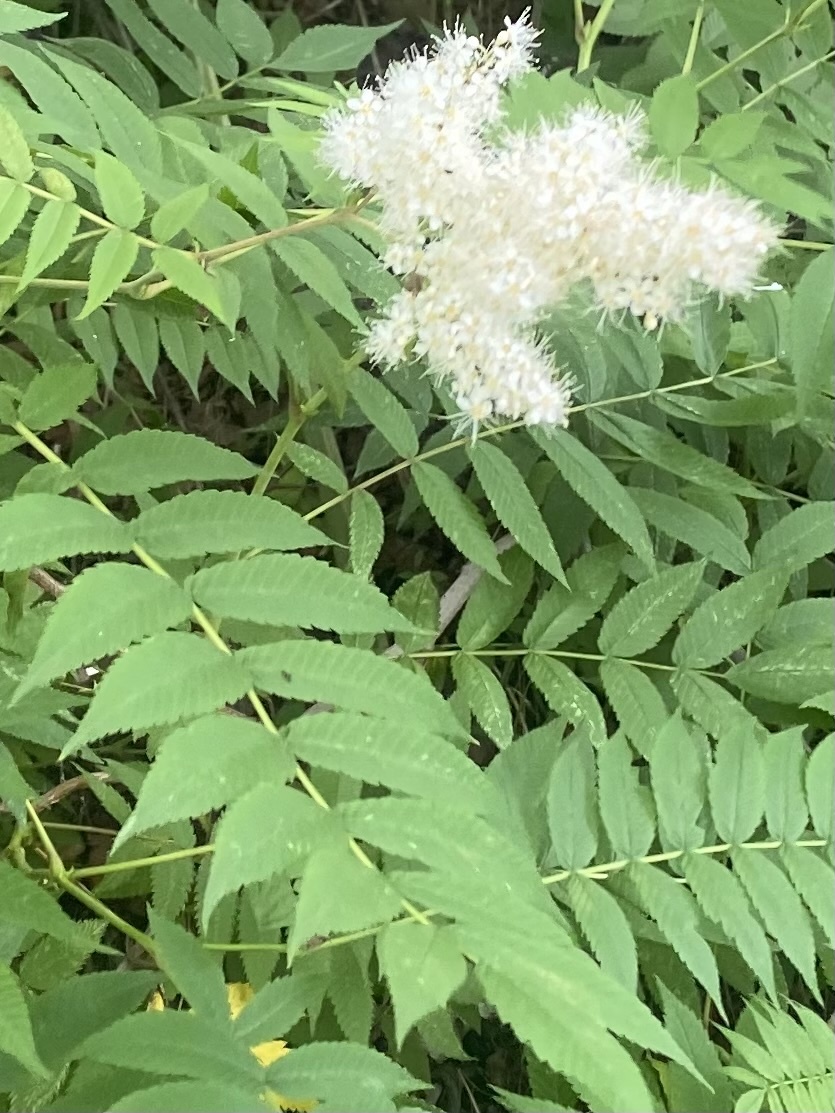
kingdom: Plantae
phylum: Tracheophyta
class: Magnoliopsida
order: Rosales
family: Rosaceae
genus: Sorbaria
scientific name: Sorbaria sorbifolia
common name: False spiraea
